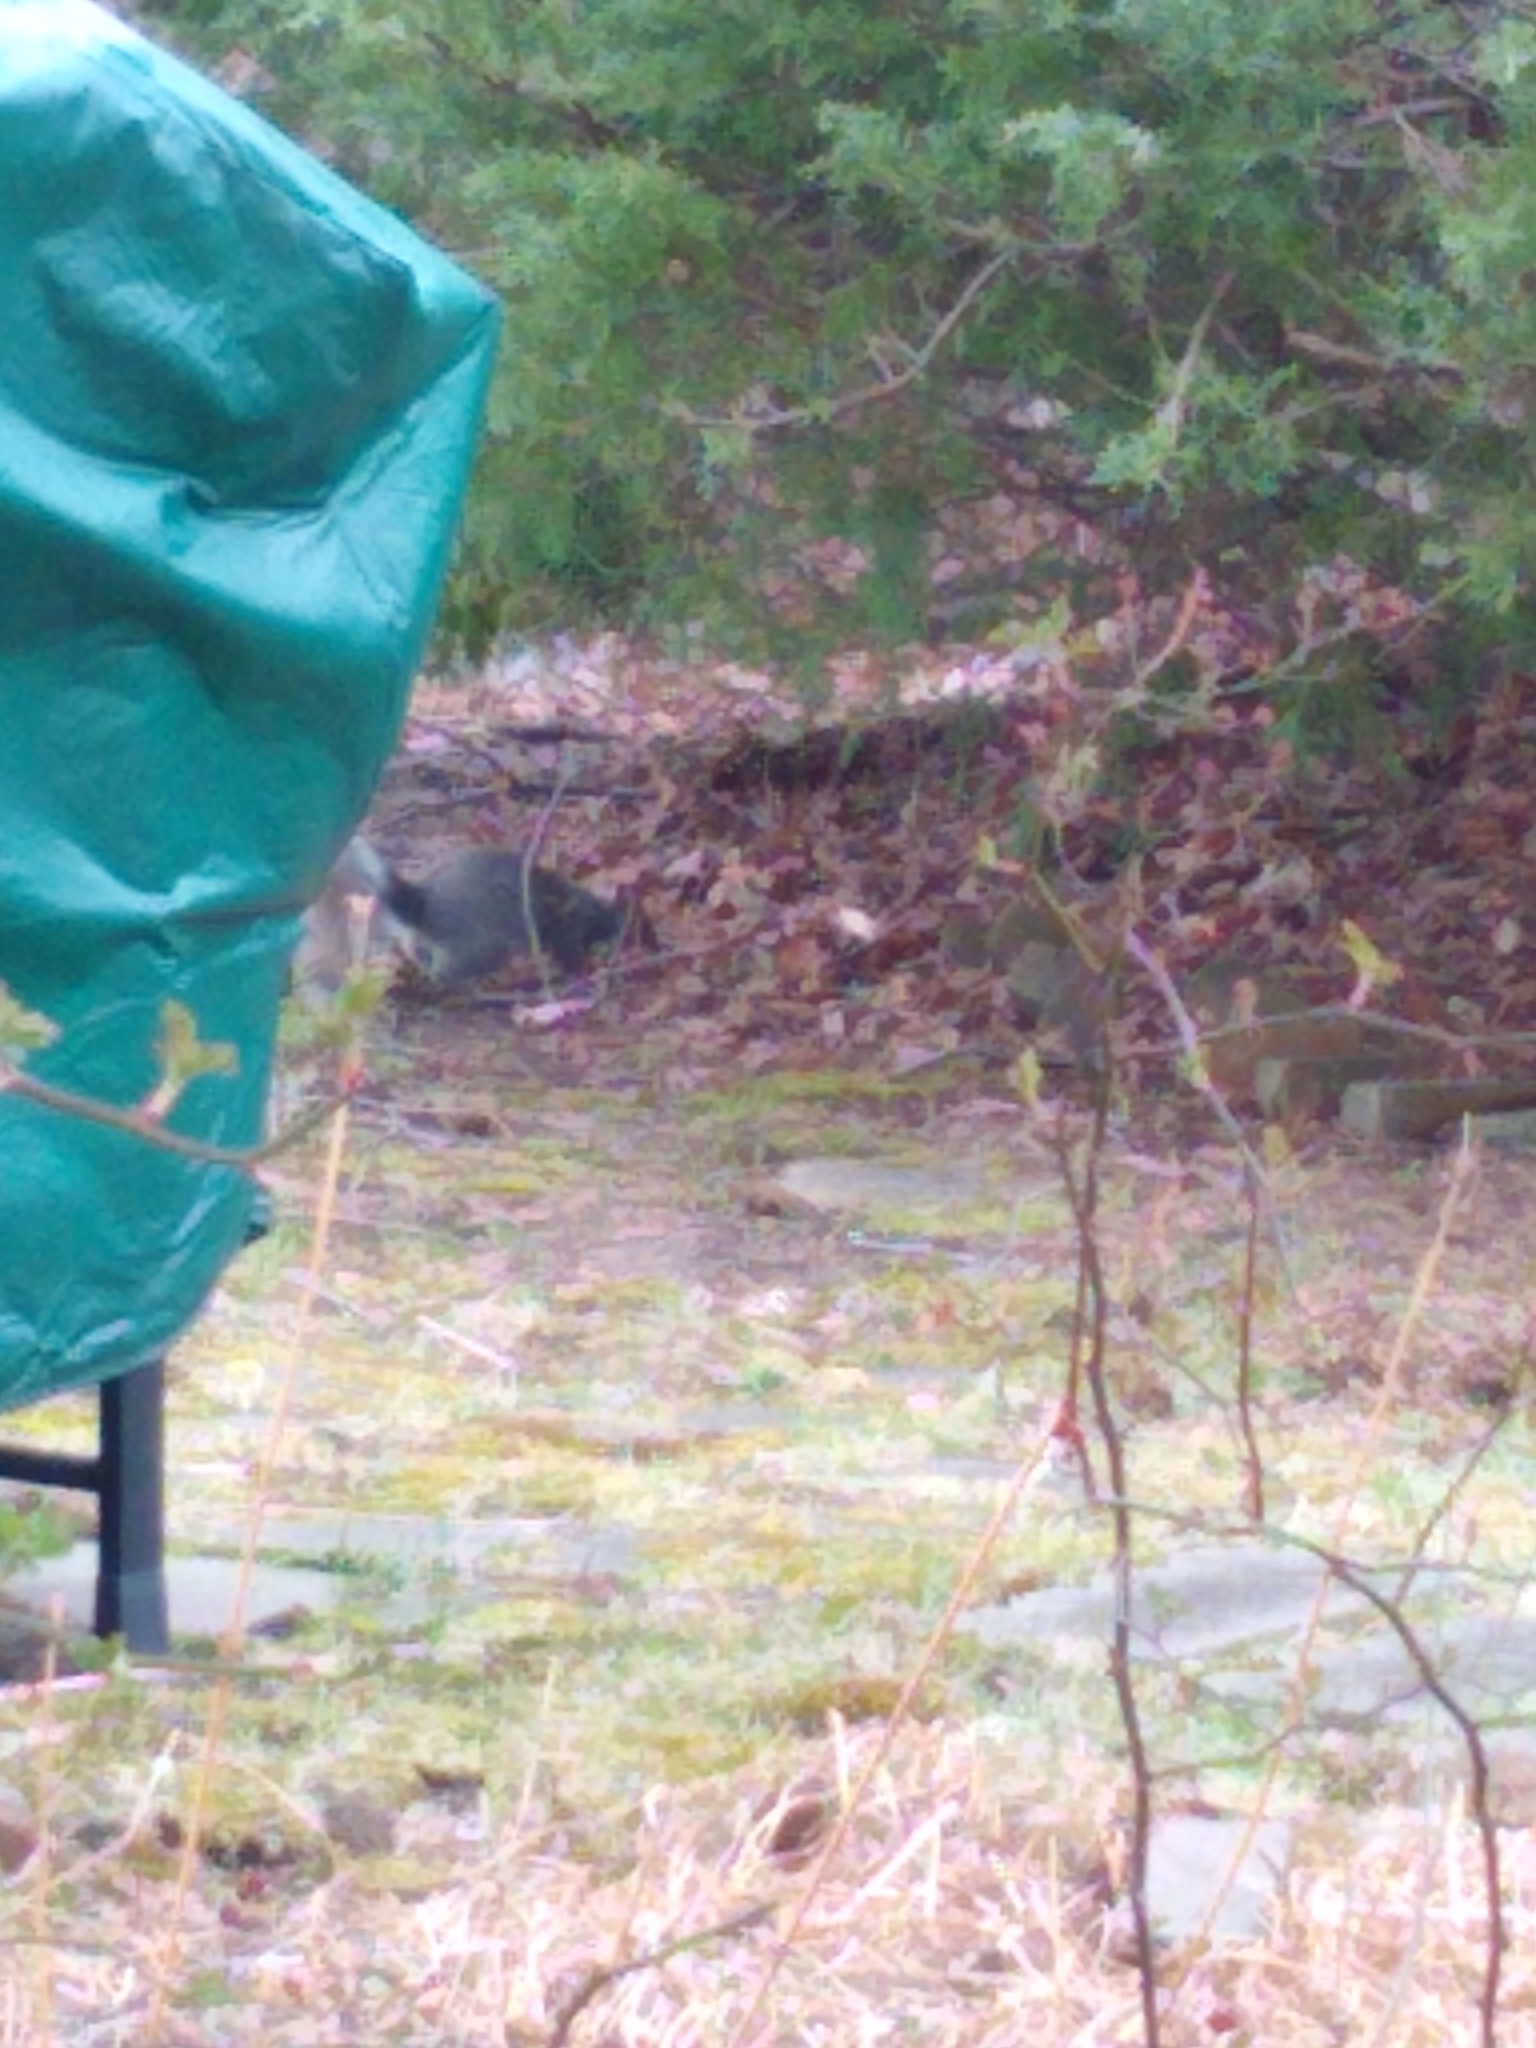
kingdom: Animalia
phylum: Chordata
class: Mammalia
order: Rodentia
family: Sciuridae
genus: Sciurus
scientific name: Sciurus carolinensis
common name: Eastern gray squirrel
